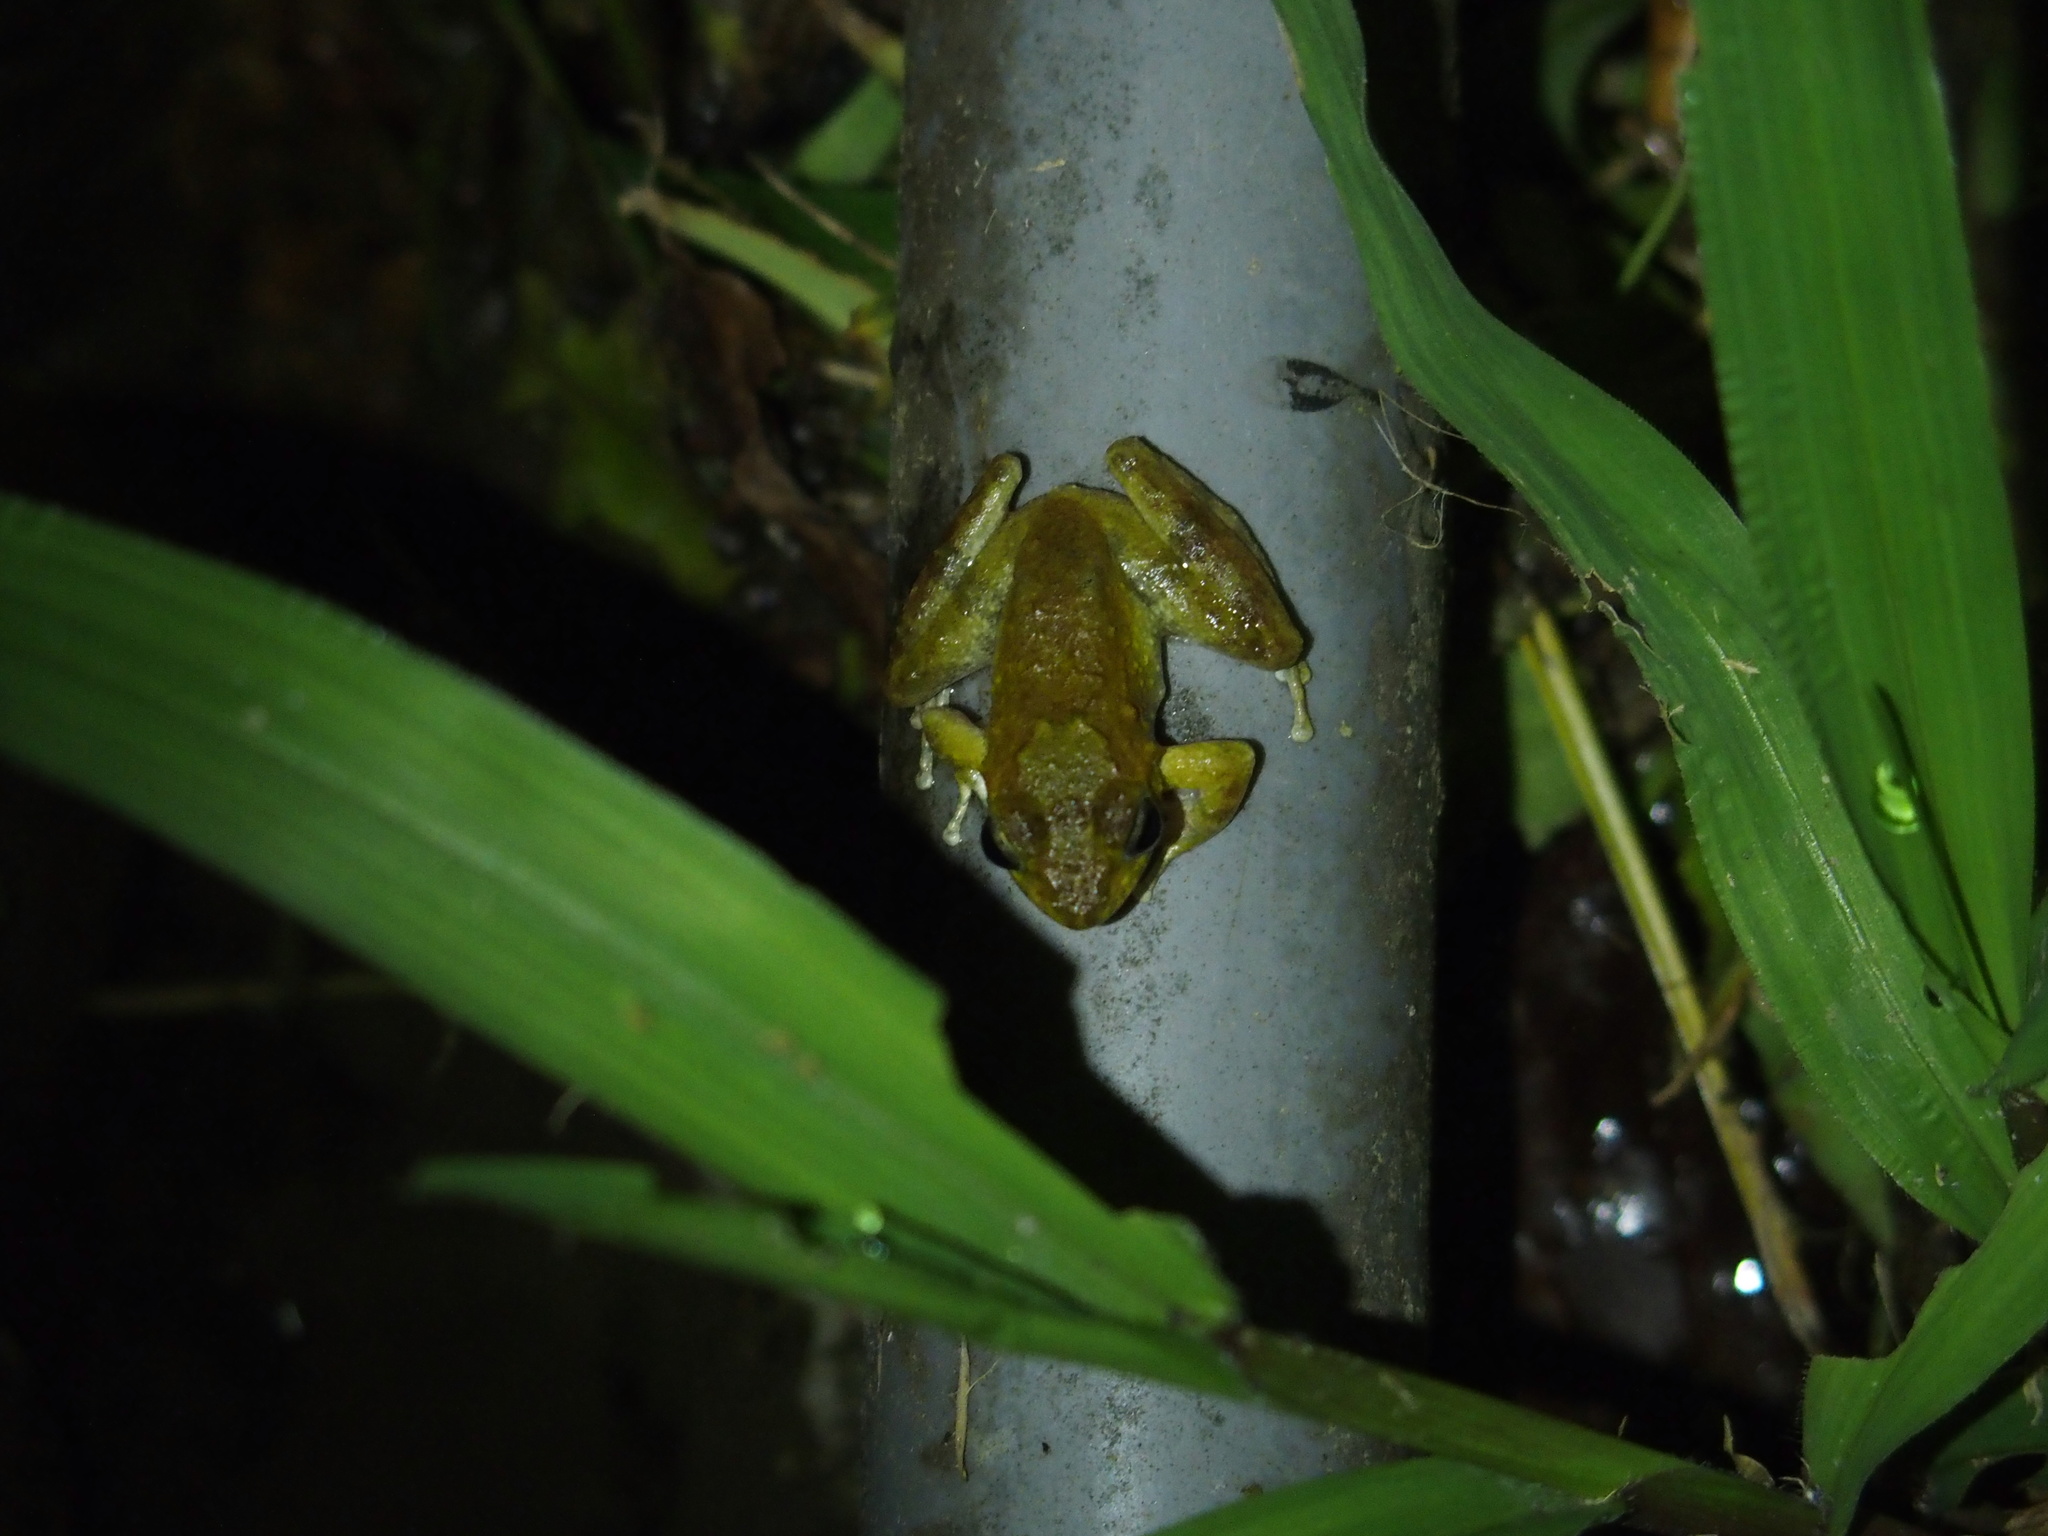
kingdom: Animalia
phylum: Chordata
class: Amphibia
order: Anura
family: Rhacophoridae
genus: Buergeria
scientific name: Buergeria otai
